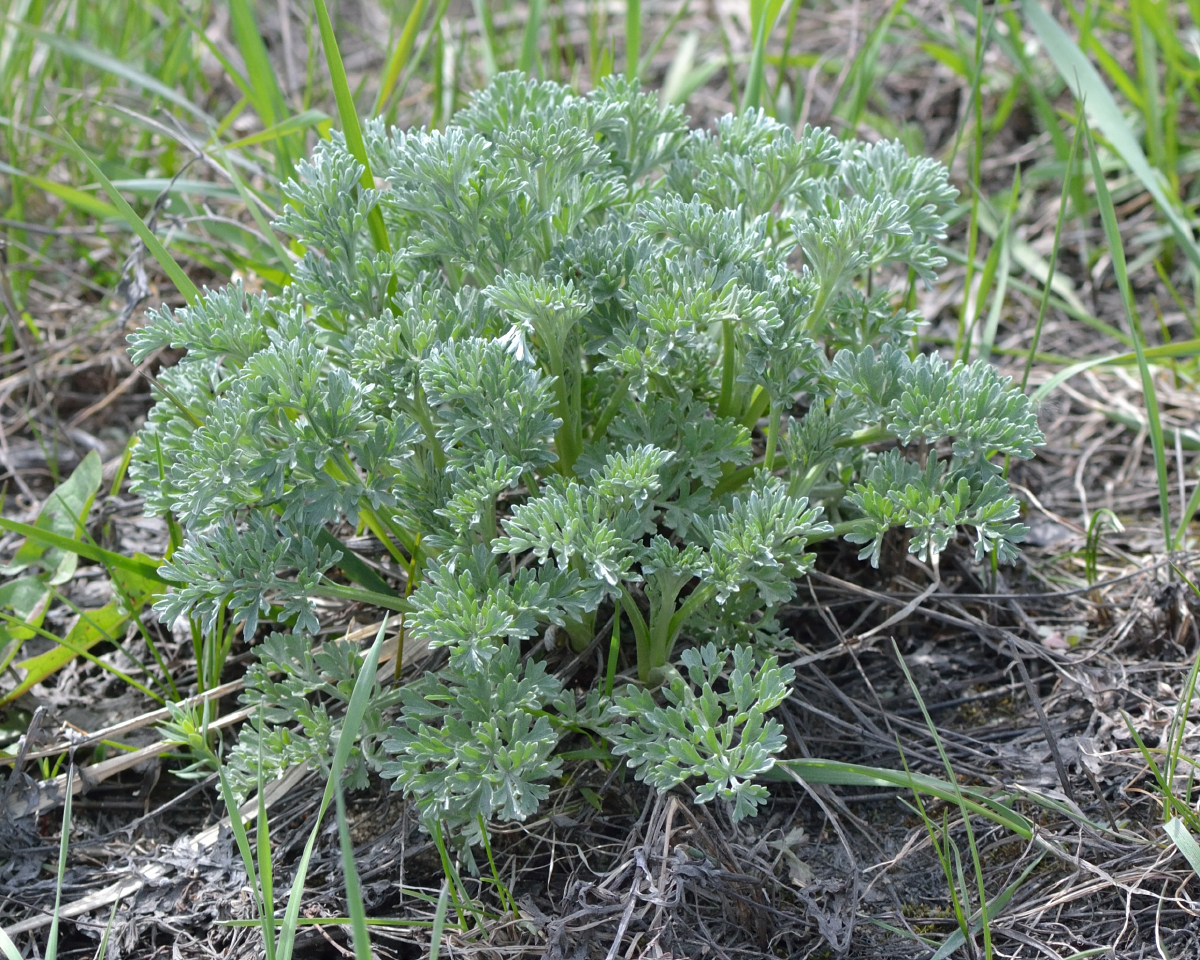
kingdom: Plantae
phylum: Tracheophyta
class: Magnoliopsida
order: Asterales
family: Asteraceae
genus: Artemisia
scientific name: Artemisia absinthium
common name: Wormwood
